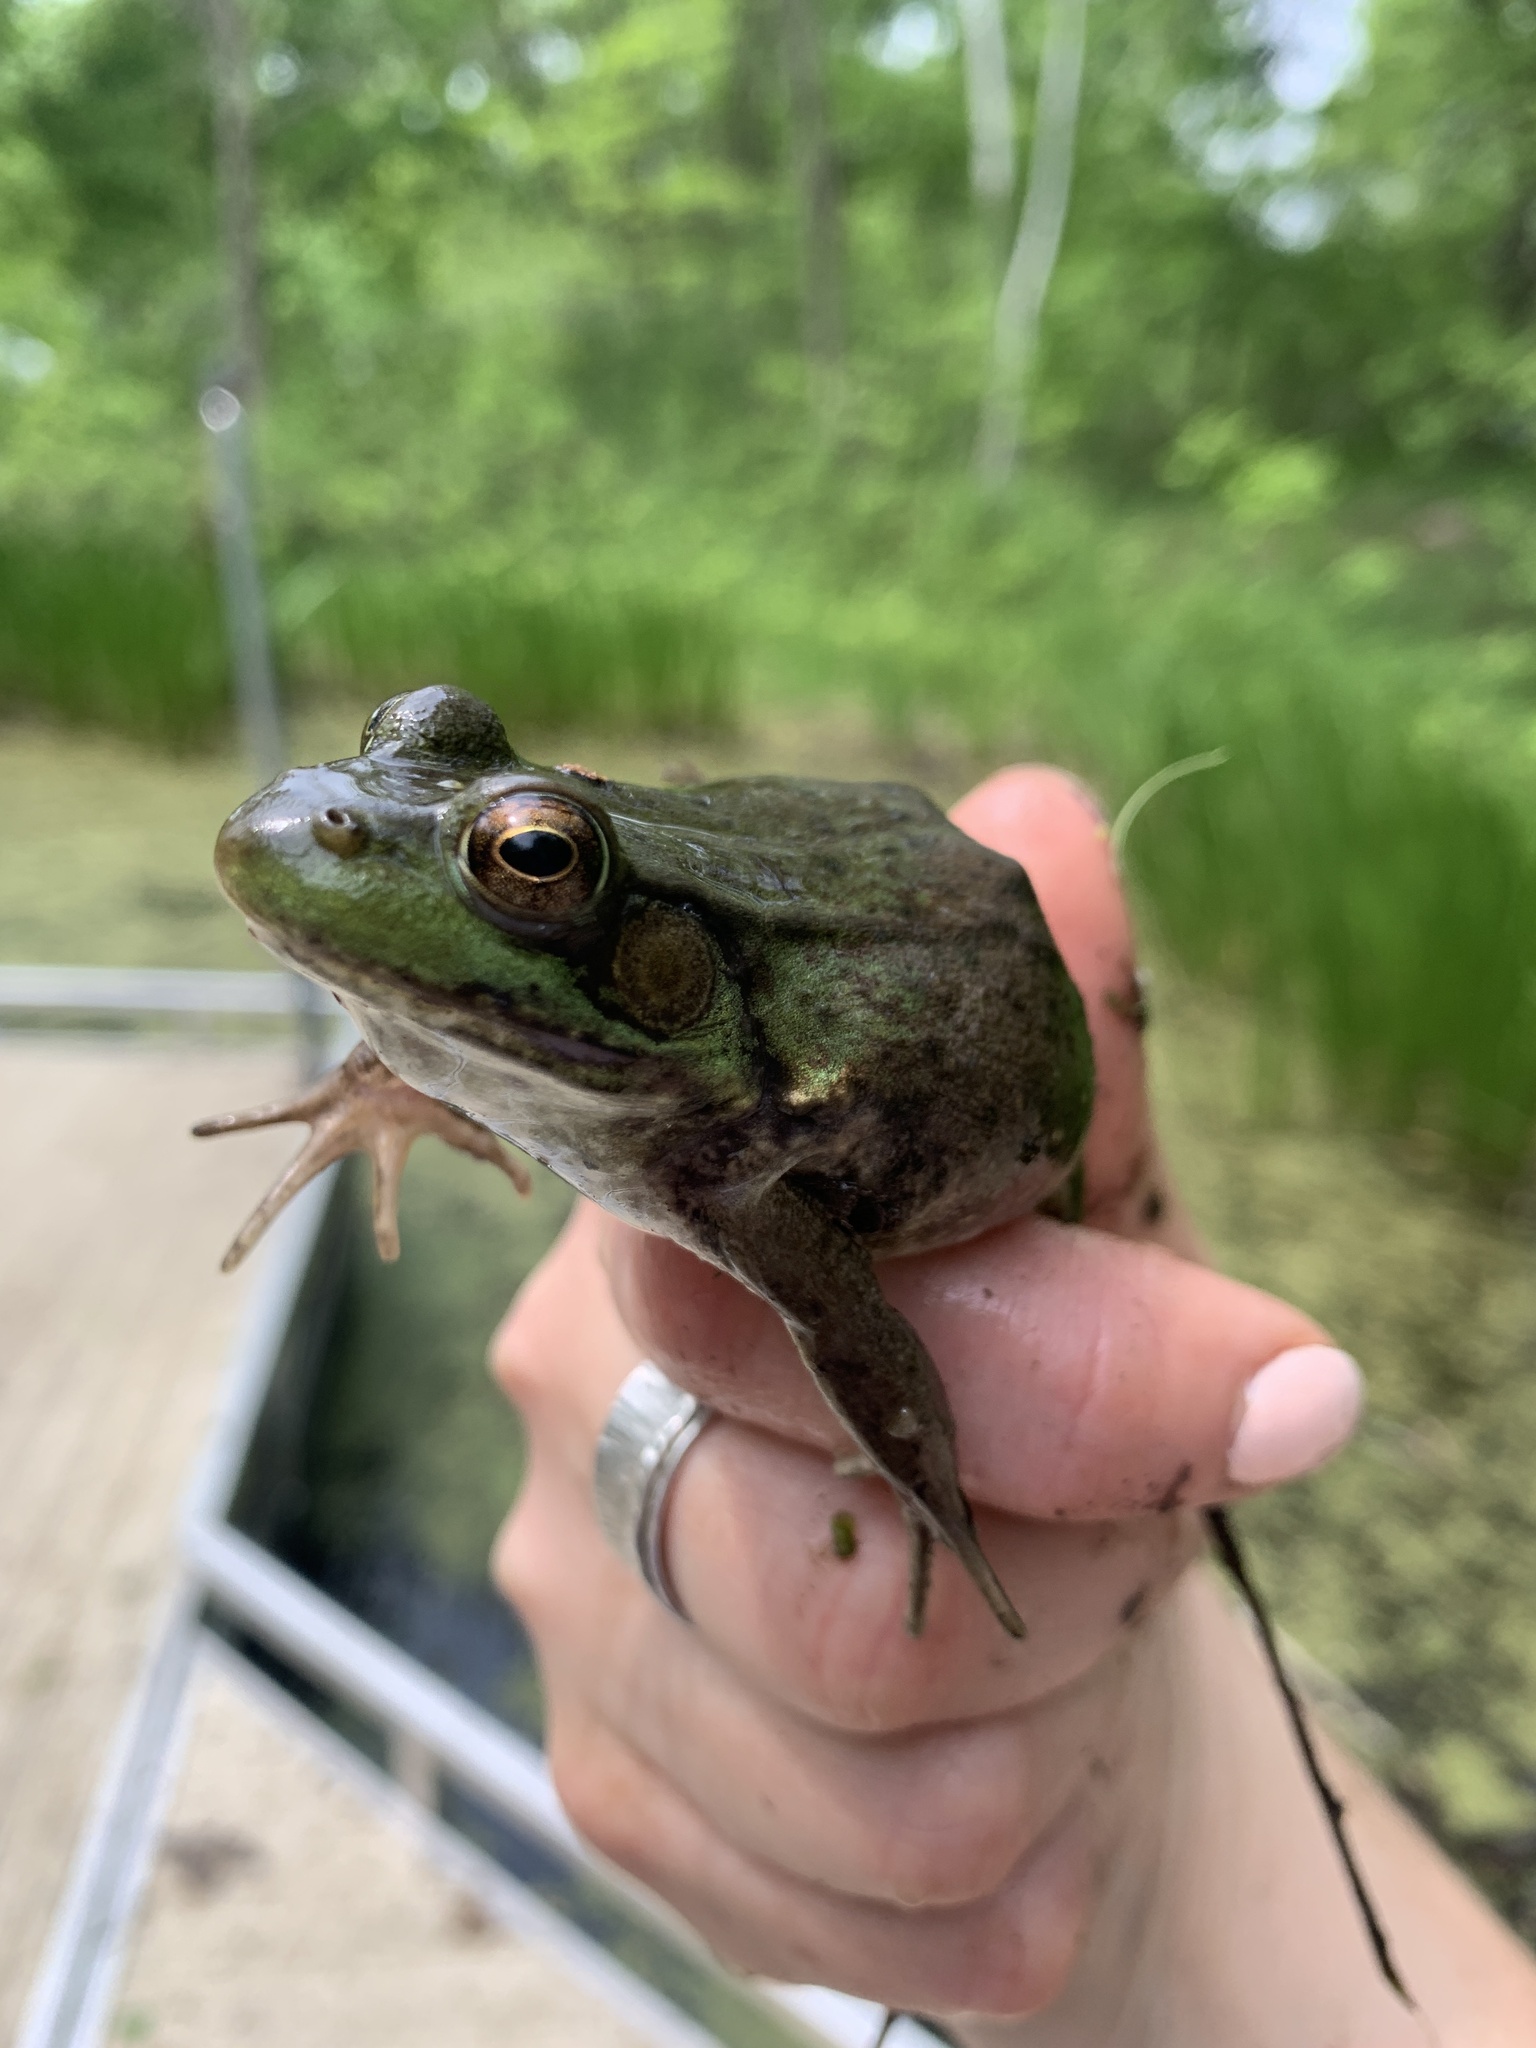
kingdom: Animalia
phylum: Chordata
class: Amphibia
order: Anura
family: Ranidae
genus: Lithobates
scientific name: Lithobates clamitans
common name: Green frog
